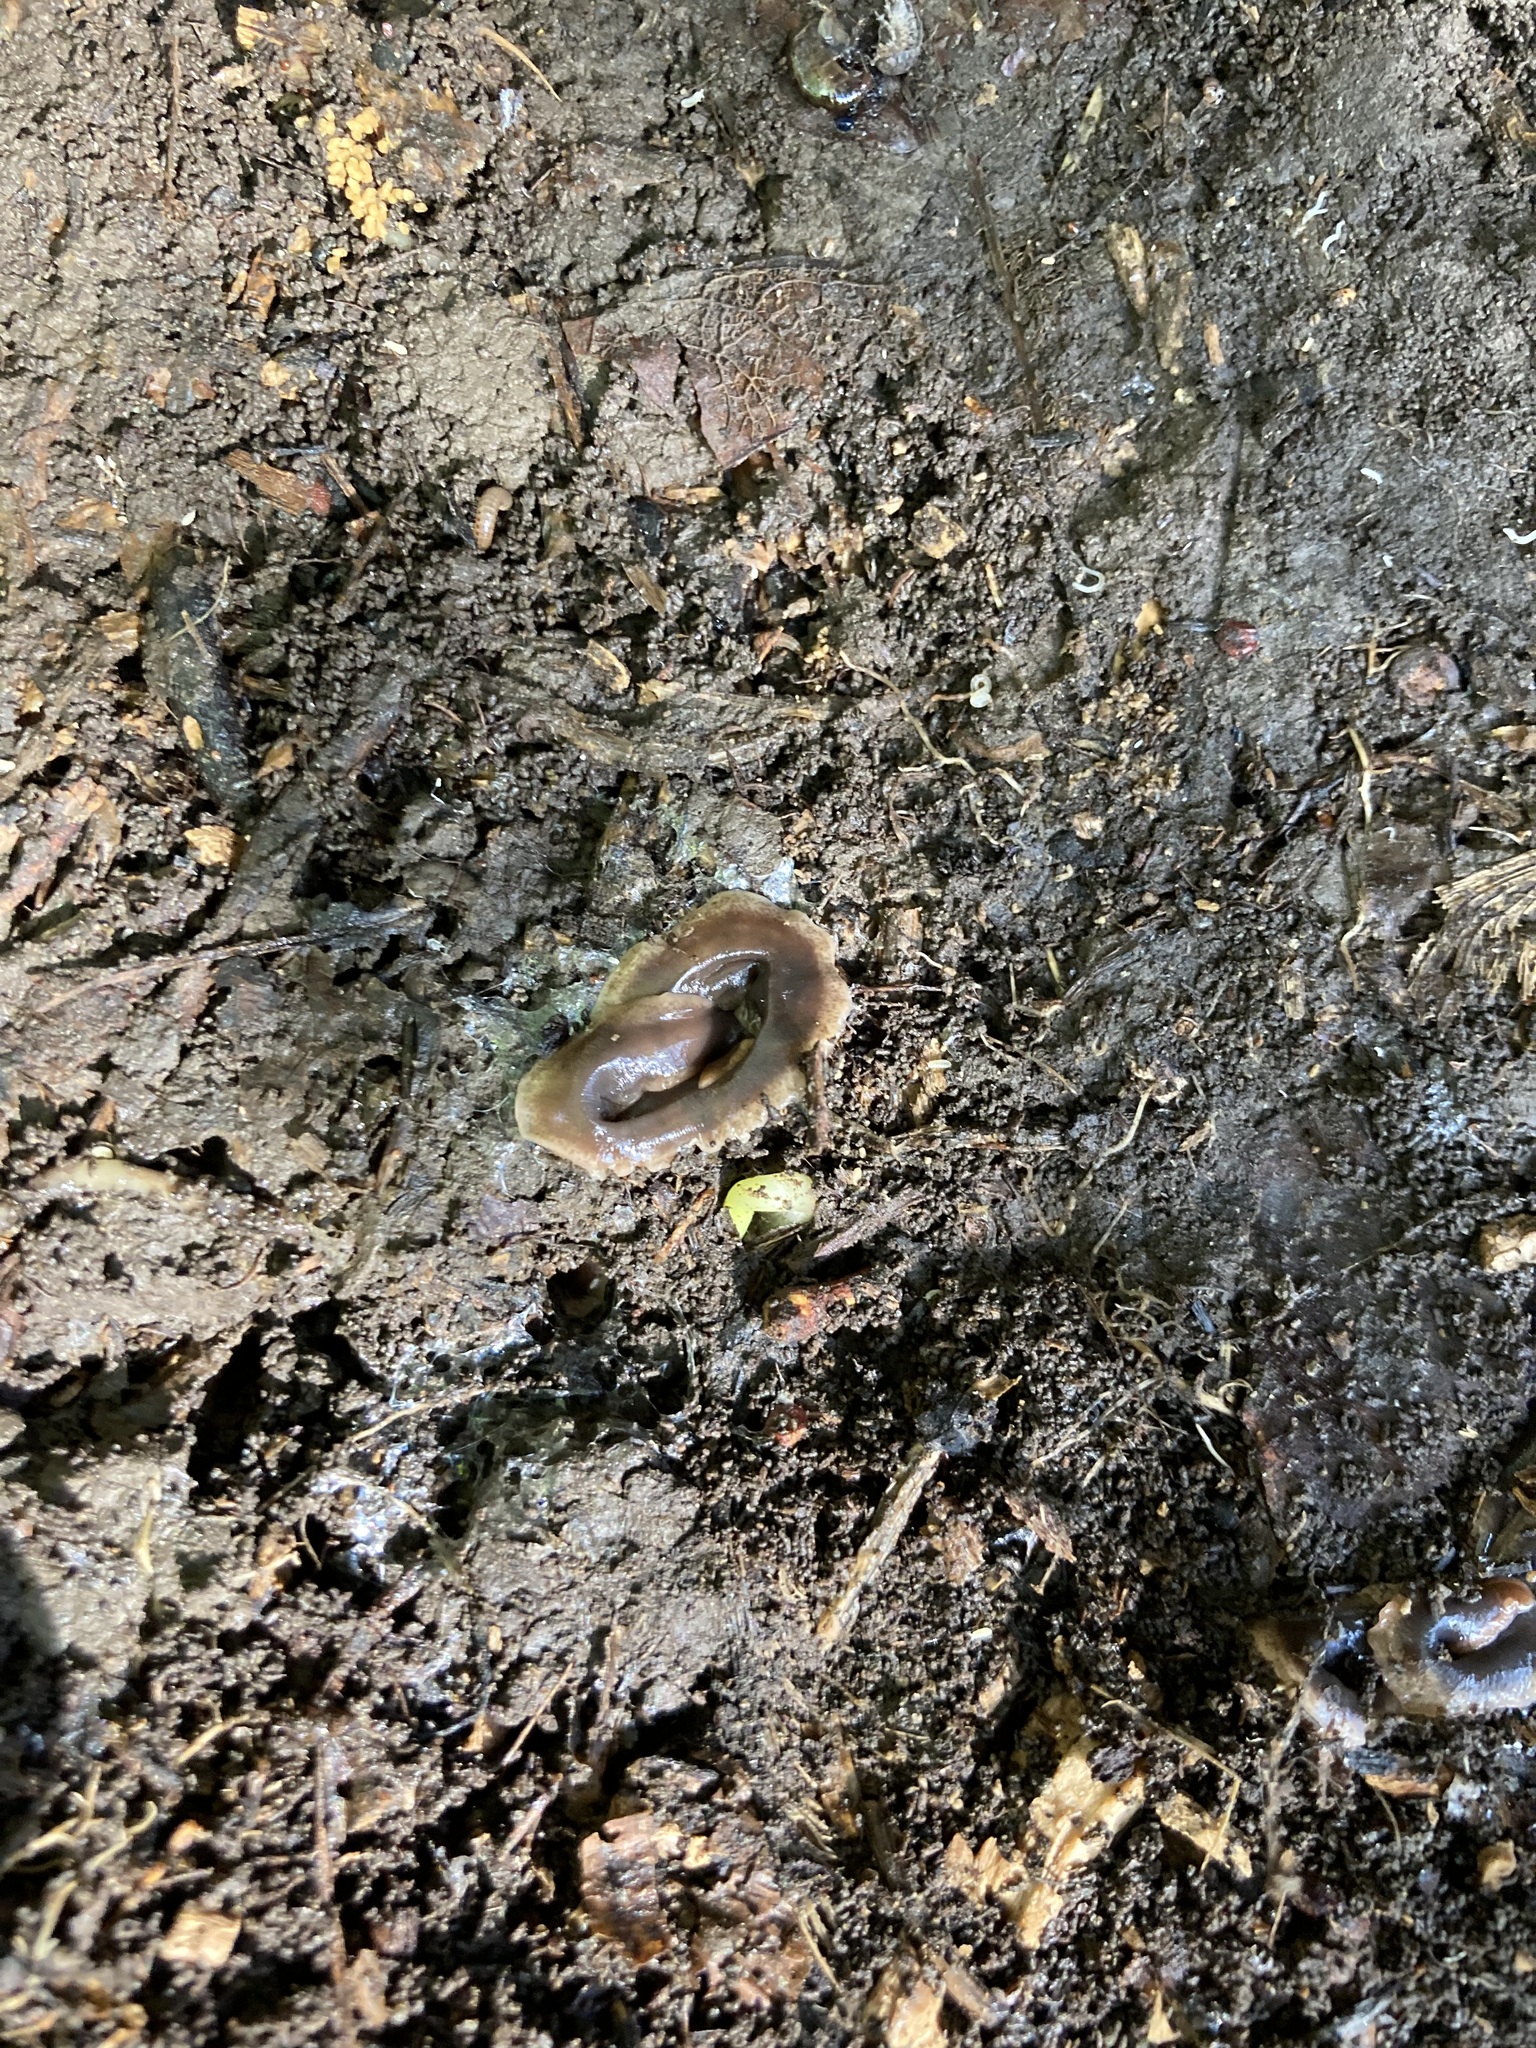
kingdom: Animalia
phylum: Platyhelminthes
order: Tricladida
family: Geoplanidae
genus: Arthurdendyus
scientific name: Arthurdendyus triangulatus
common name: New zealand flatworm
